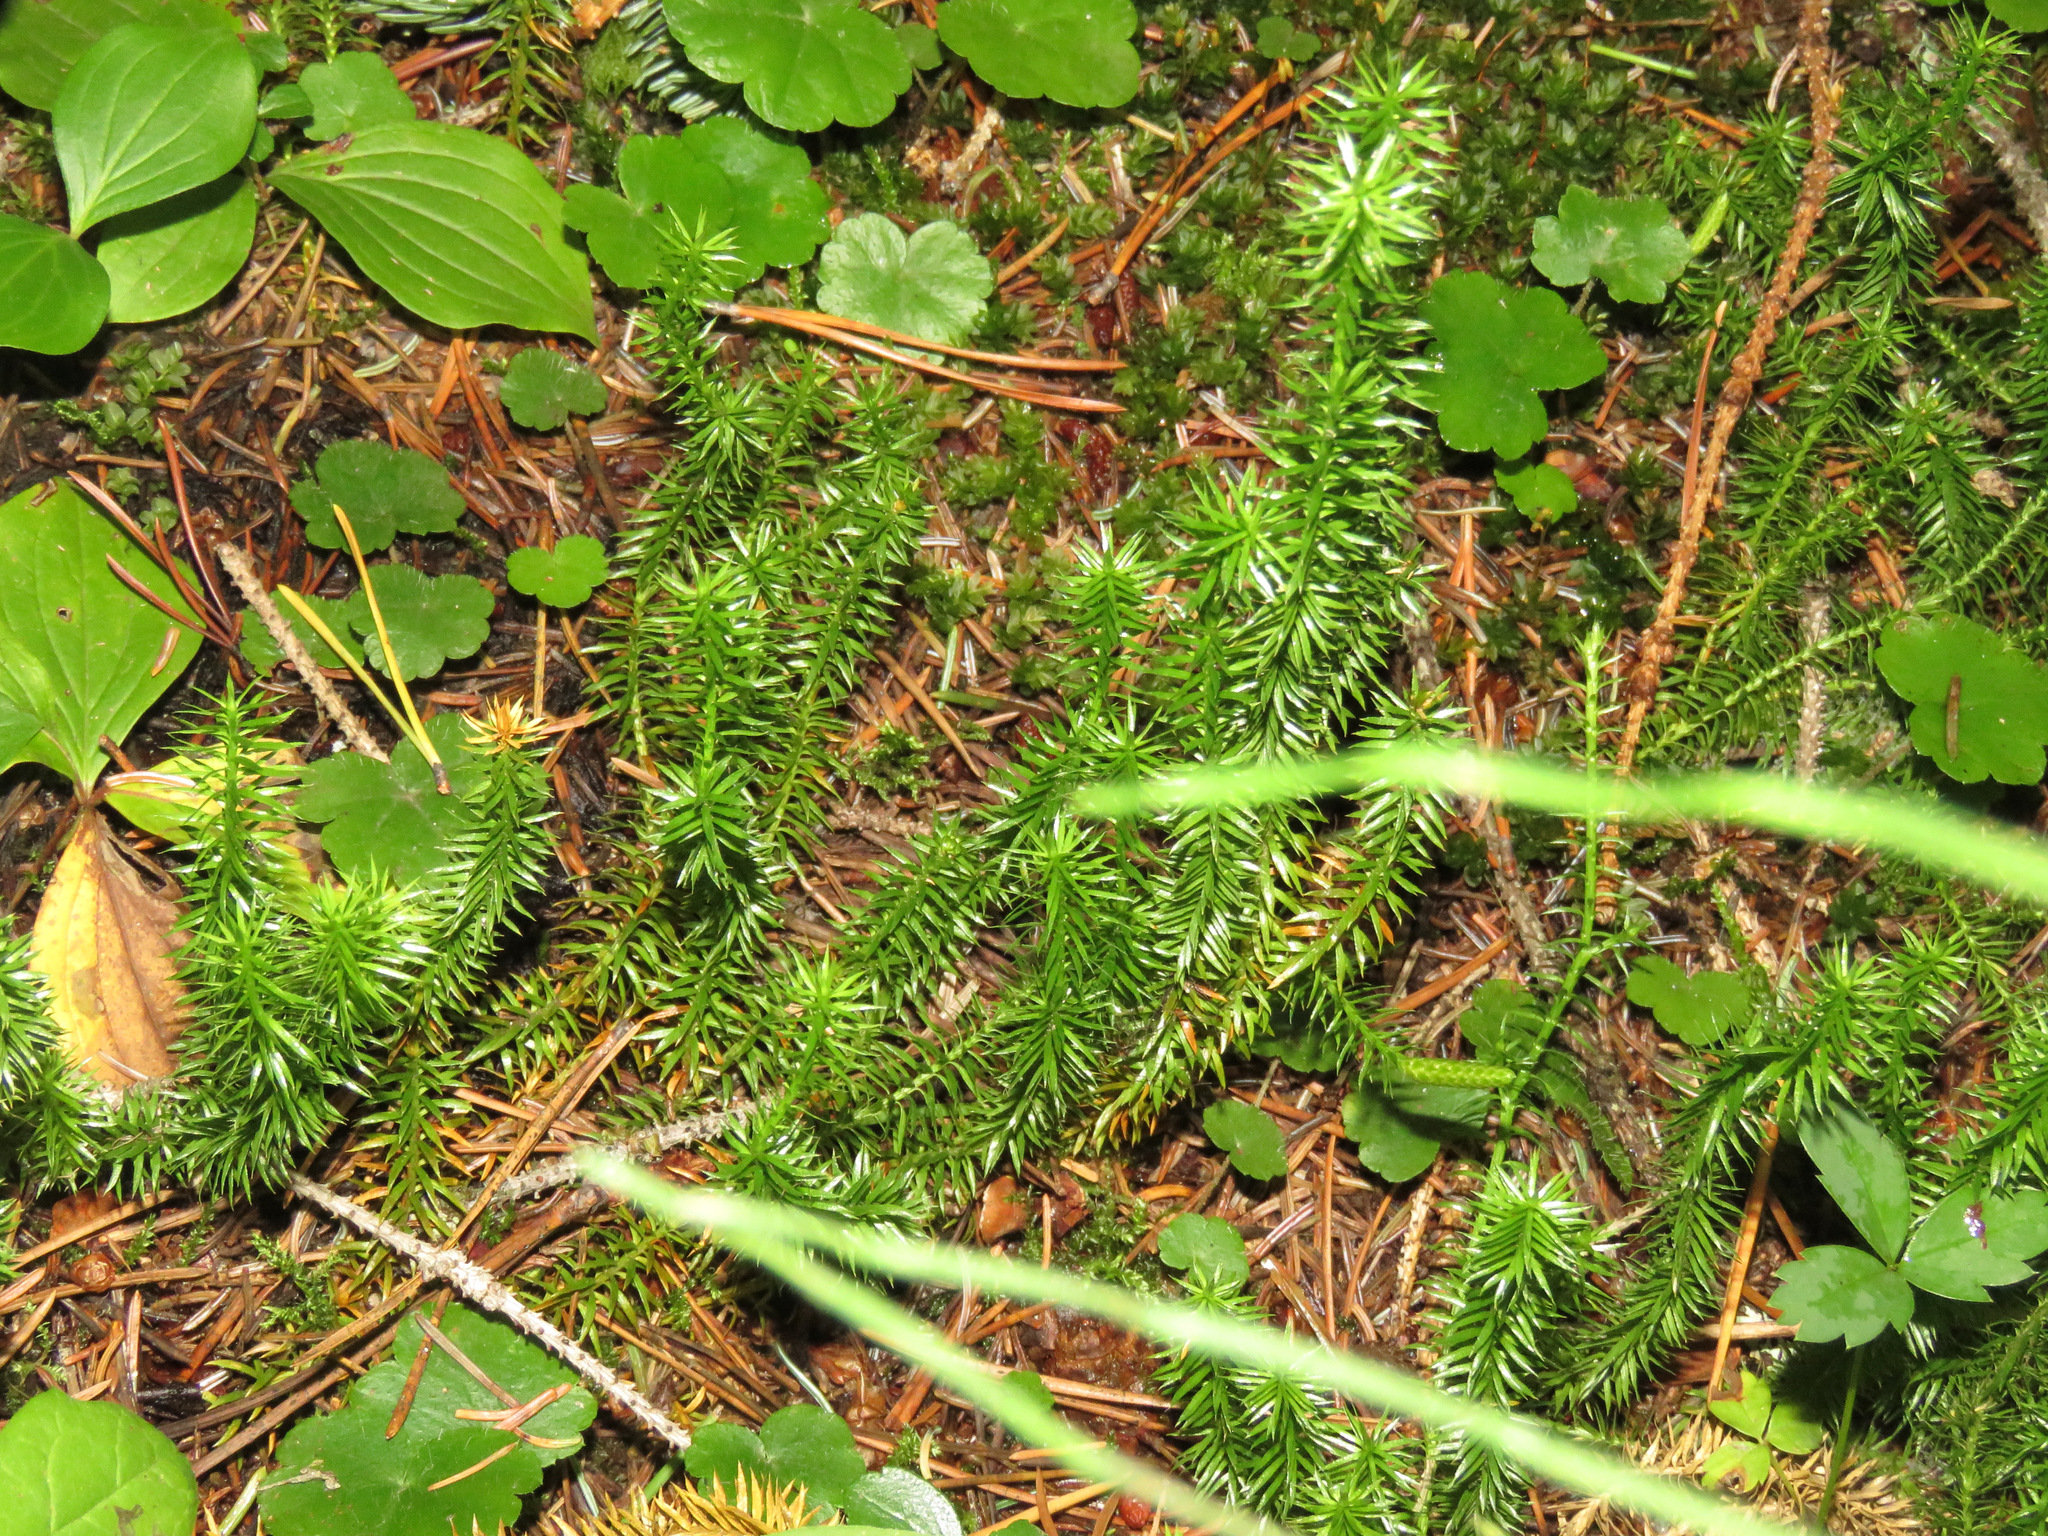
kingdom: Plantae
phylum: Tracheophyta
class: Lycopodiopsida
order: Lycopodiales
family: Lycopodiaceae
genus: Spinulum
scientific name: Spinulum annotinum
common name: Interrupted club-moss
